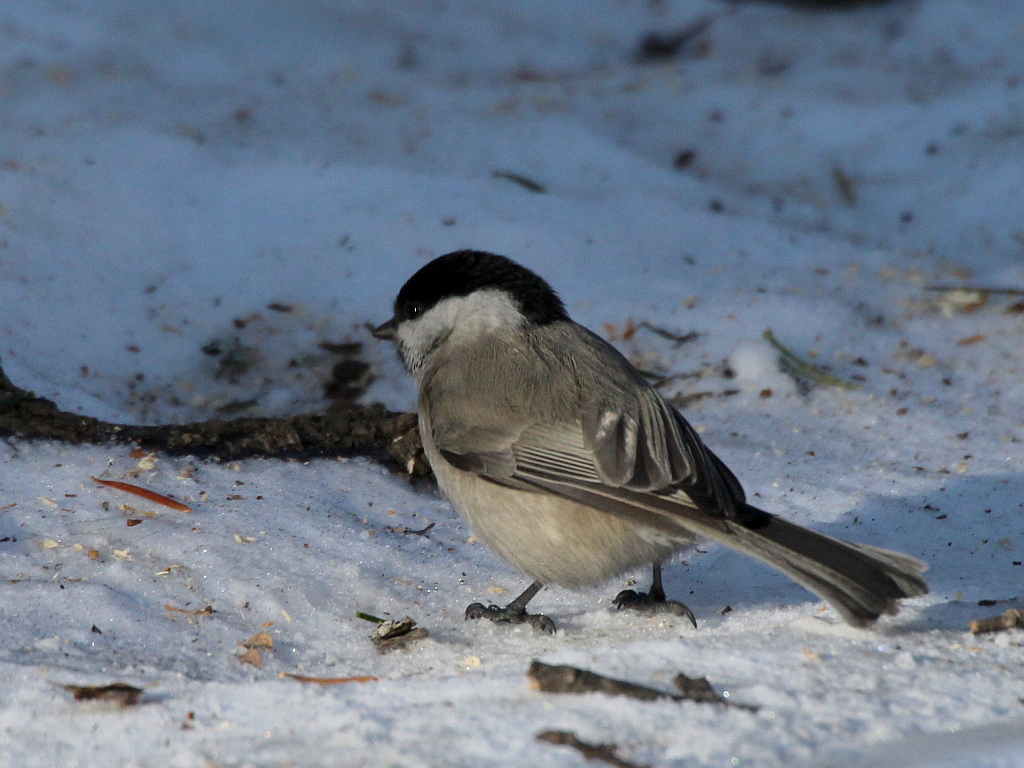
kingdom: Animalia
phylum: Chordata
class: Aves
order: Passeriformes
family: Paridae
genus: Poecile
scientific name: Poecile palustris
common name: Marsh tit
